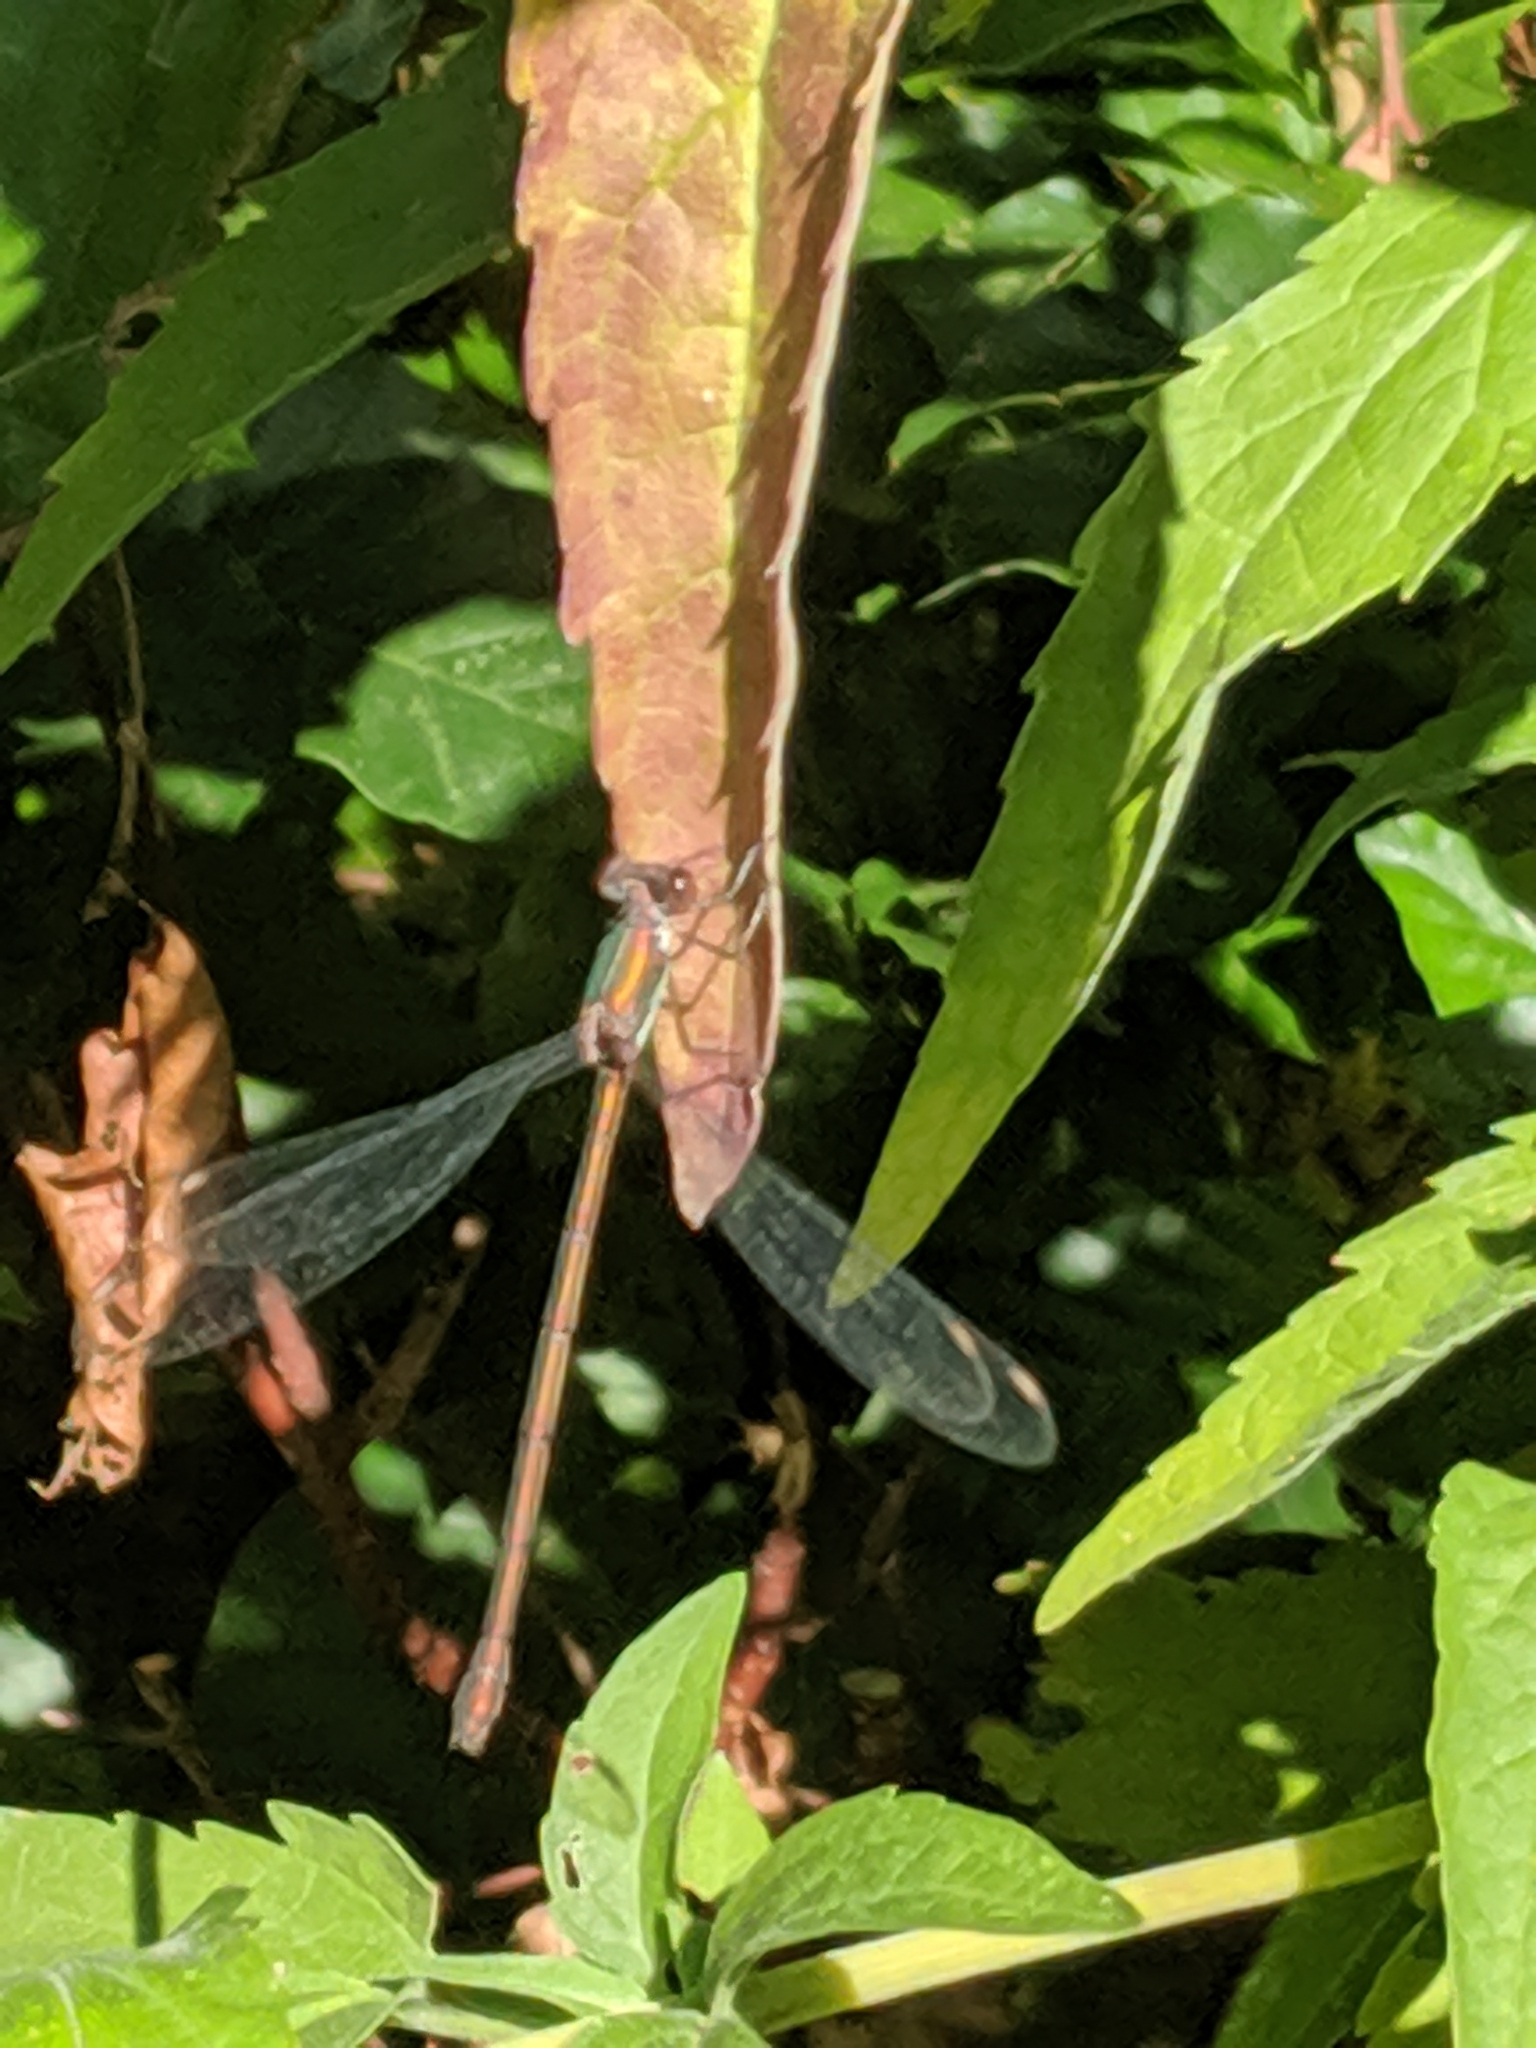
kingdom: Animalia
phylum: Arthropoda
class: Insecta
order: Odonata
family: Lestidae
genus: Chalcolestes
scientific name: Chalcolestes viridis
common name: Green emerald damselfly
